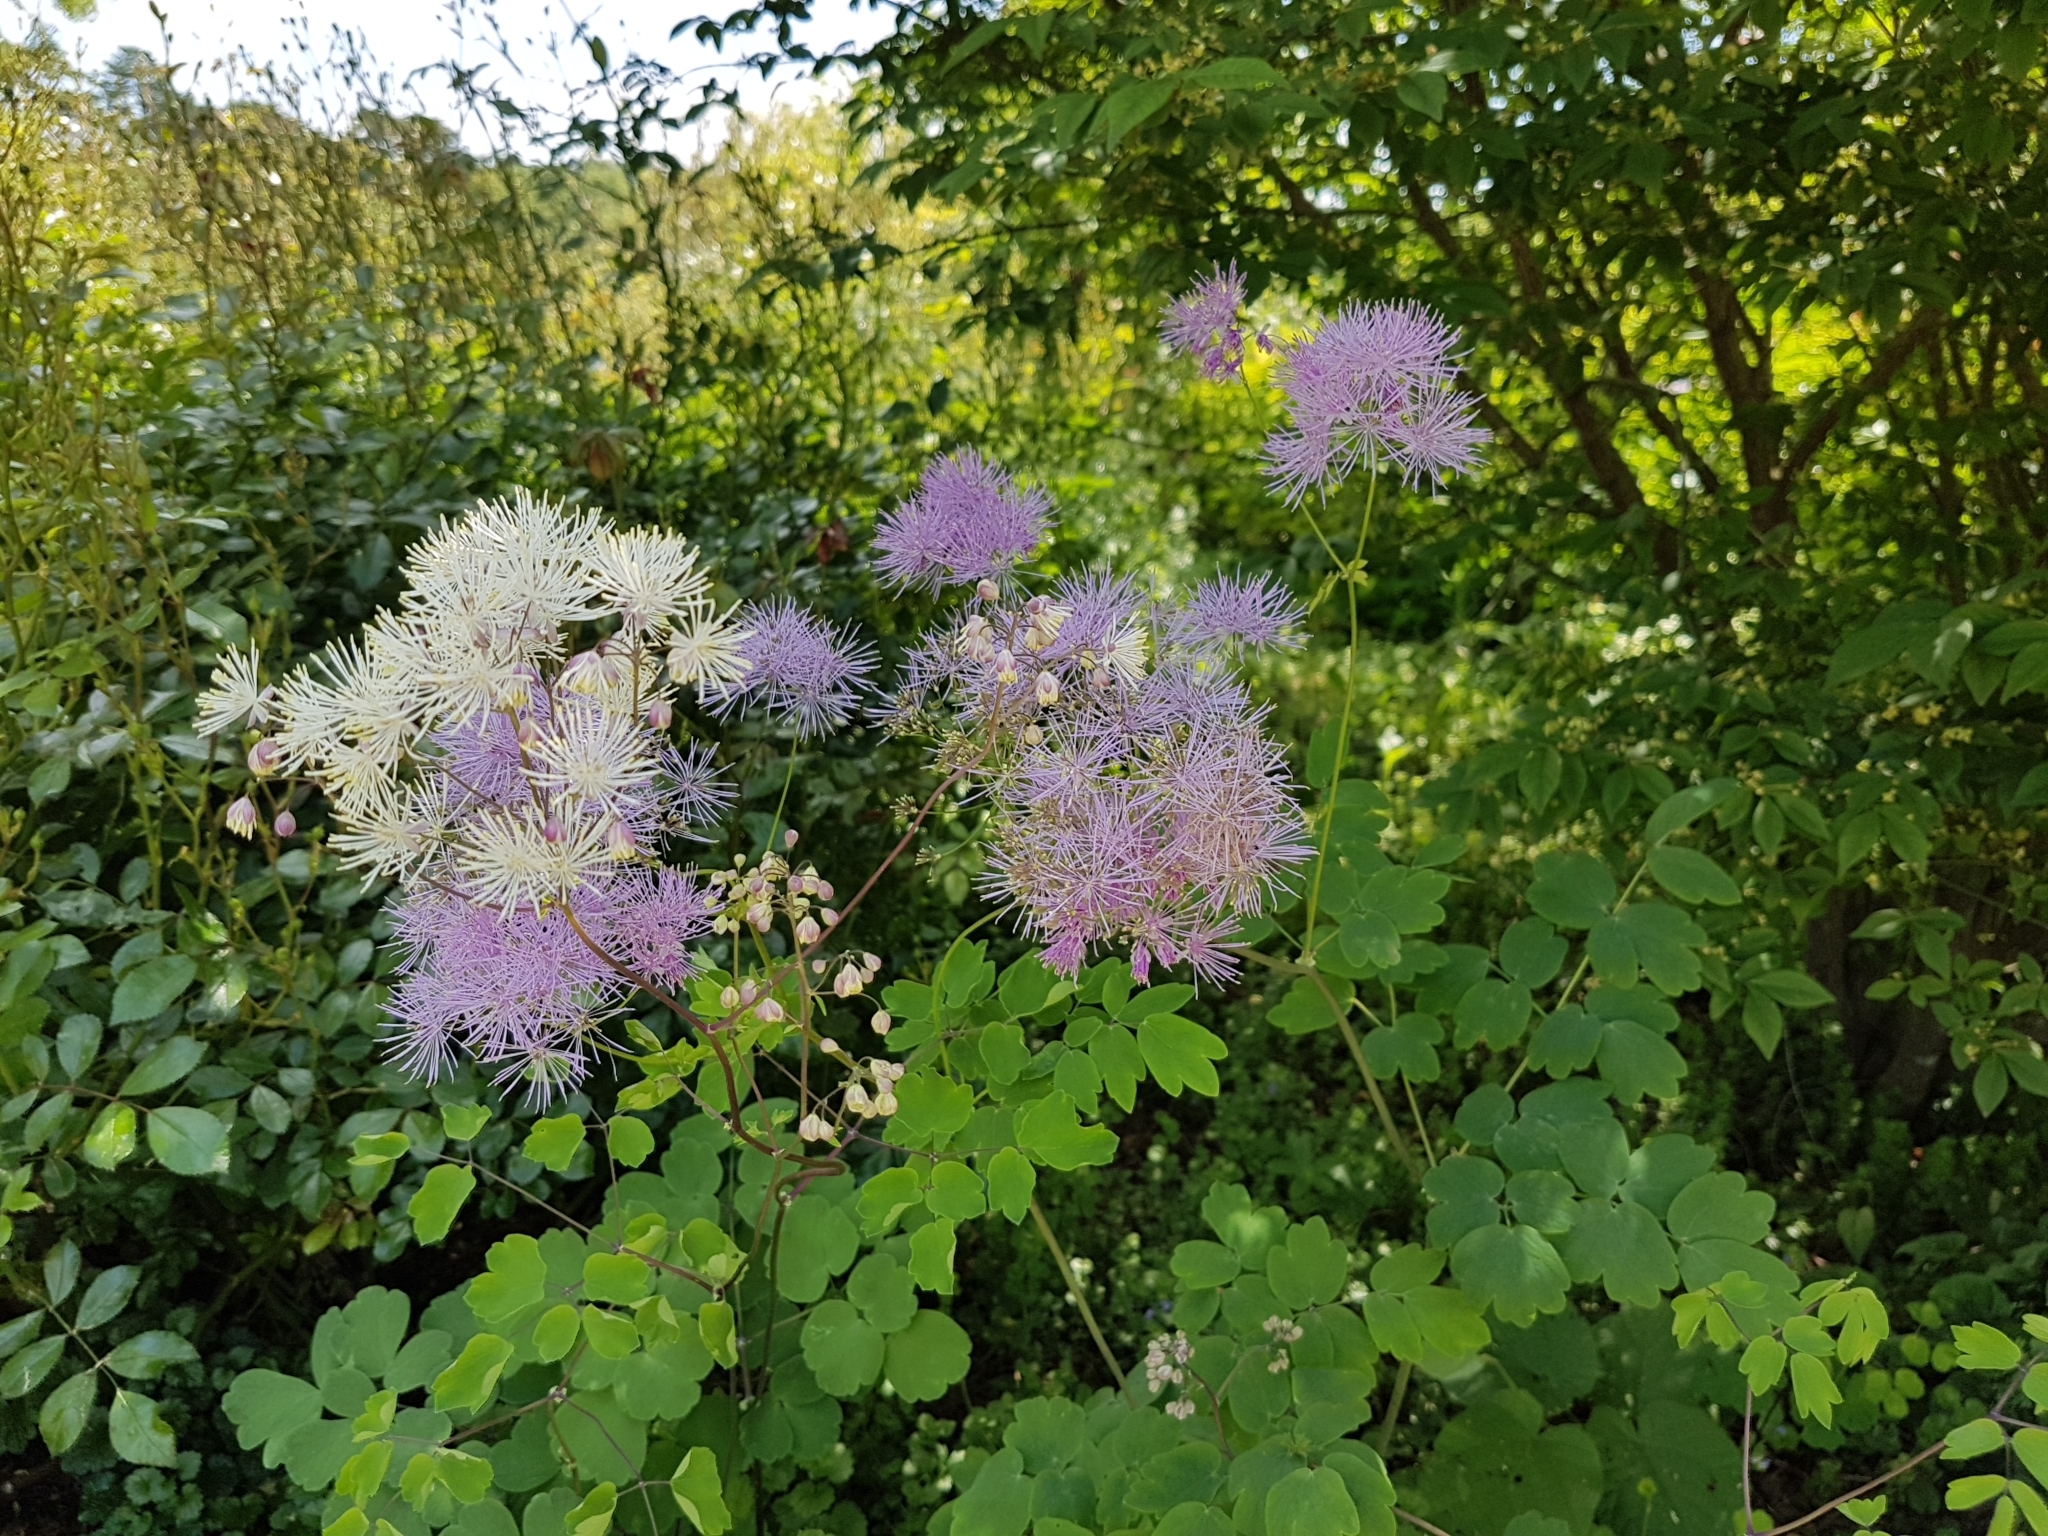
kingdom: Plantae
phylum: Tracheophyta
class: Magnoliopsida
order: Ranunculales
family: Ranunculaceae
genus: Thalictrum
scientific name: Thalictrum aquilegiifolium
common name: French meadow-rue
